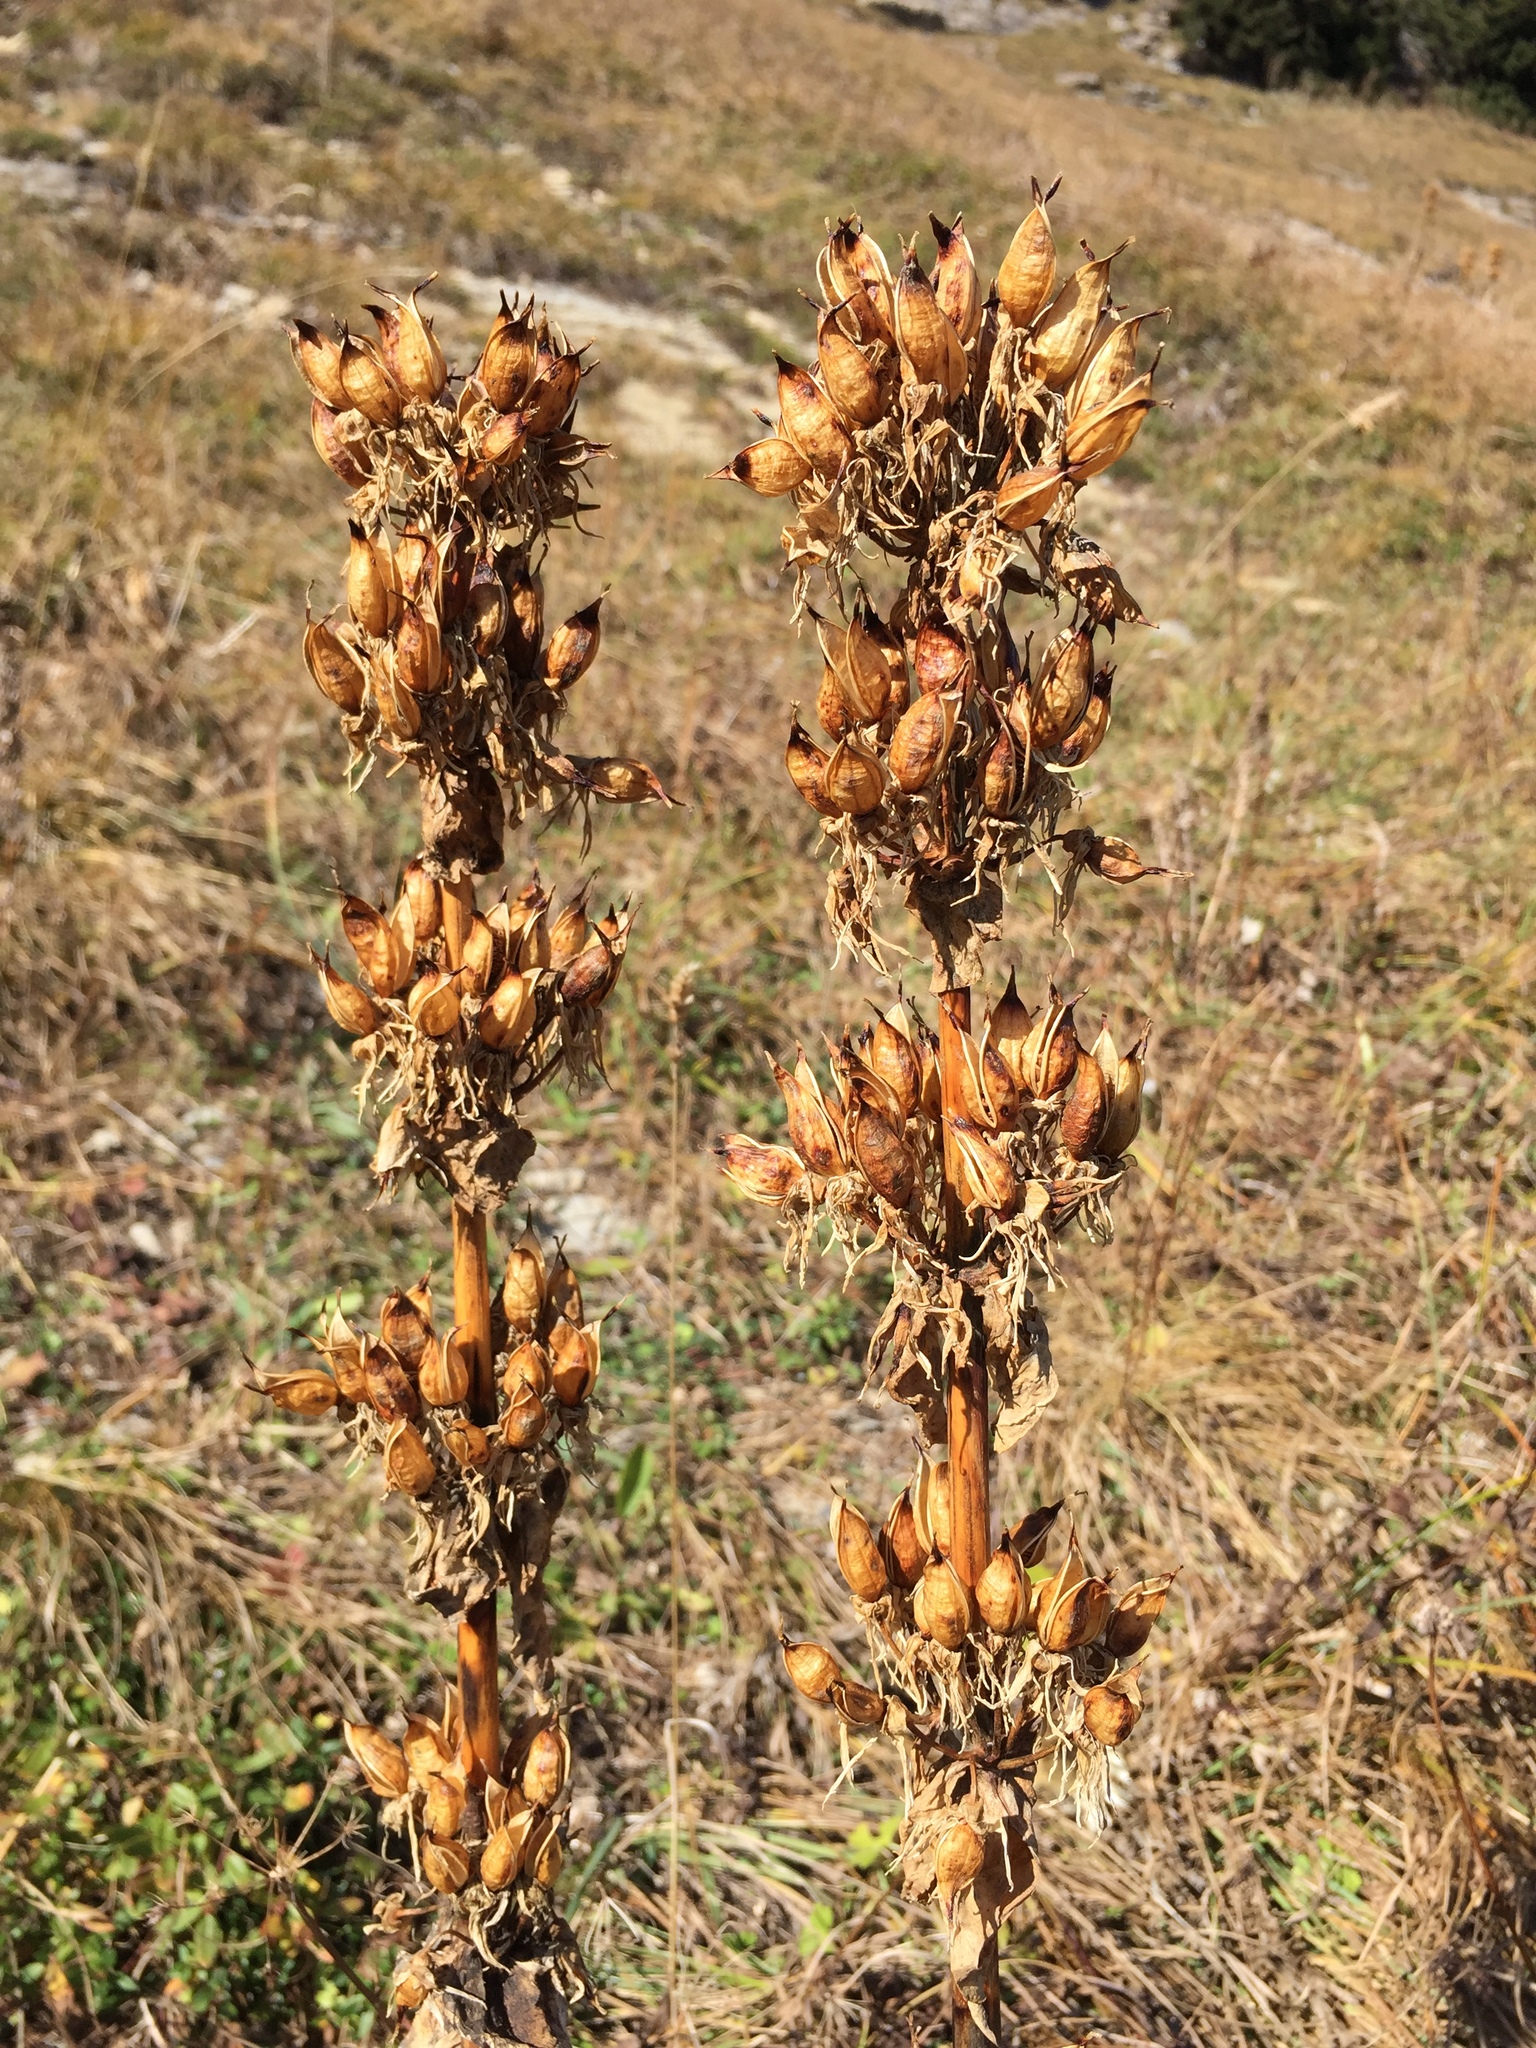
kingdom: Plantae
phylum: Tracheophyta
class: Magnoliopsida
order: Gentianales
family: Gentianaceae
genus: Gentiana
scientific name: Gentiana lutea
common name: Great yellow gentian
